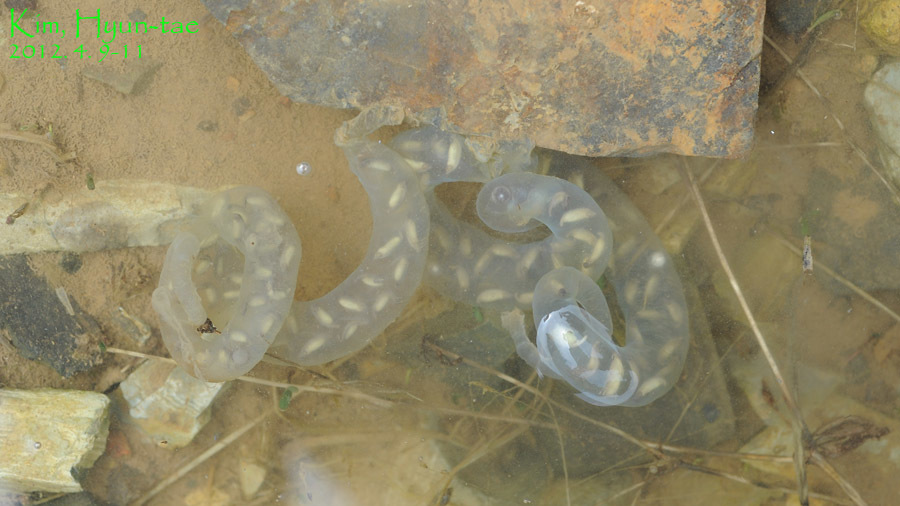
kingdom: Animalia
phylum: Chordata
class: Amphibia
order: Caudata
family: Hynobiidae
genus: Hynobius
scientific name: Hynobius perplicatus
